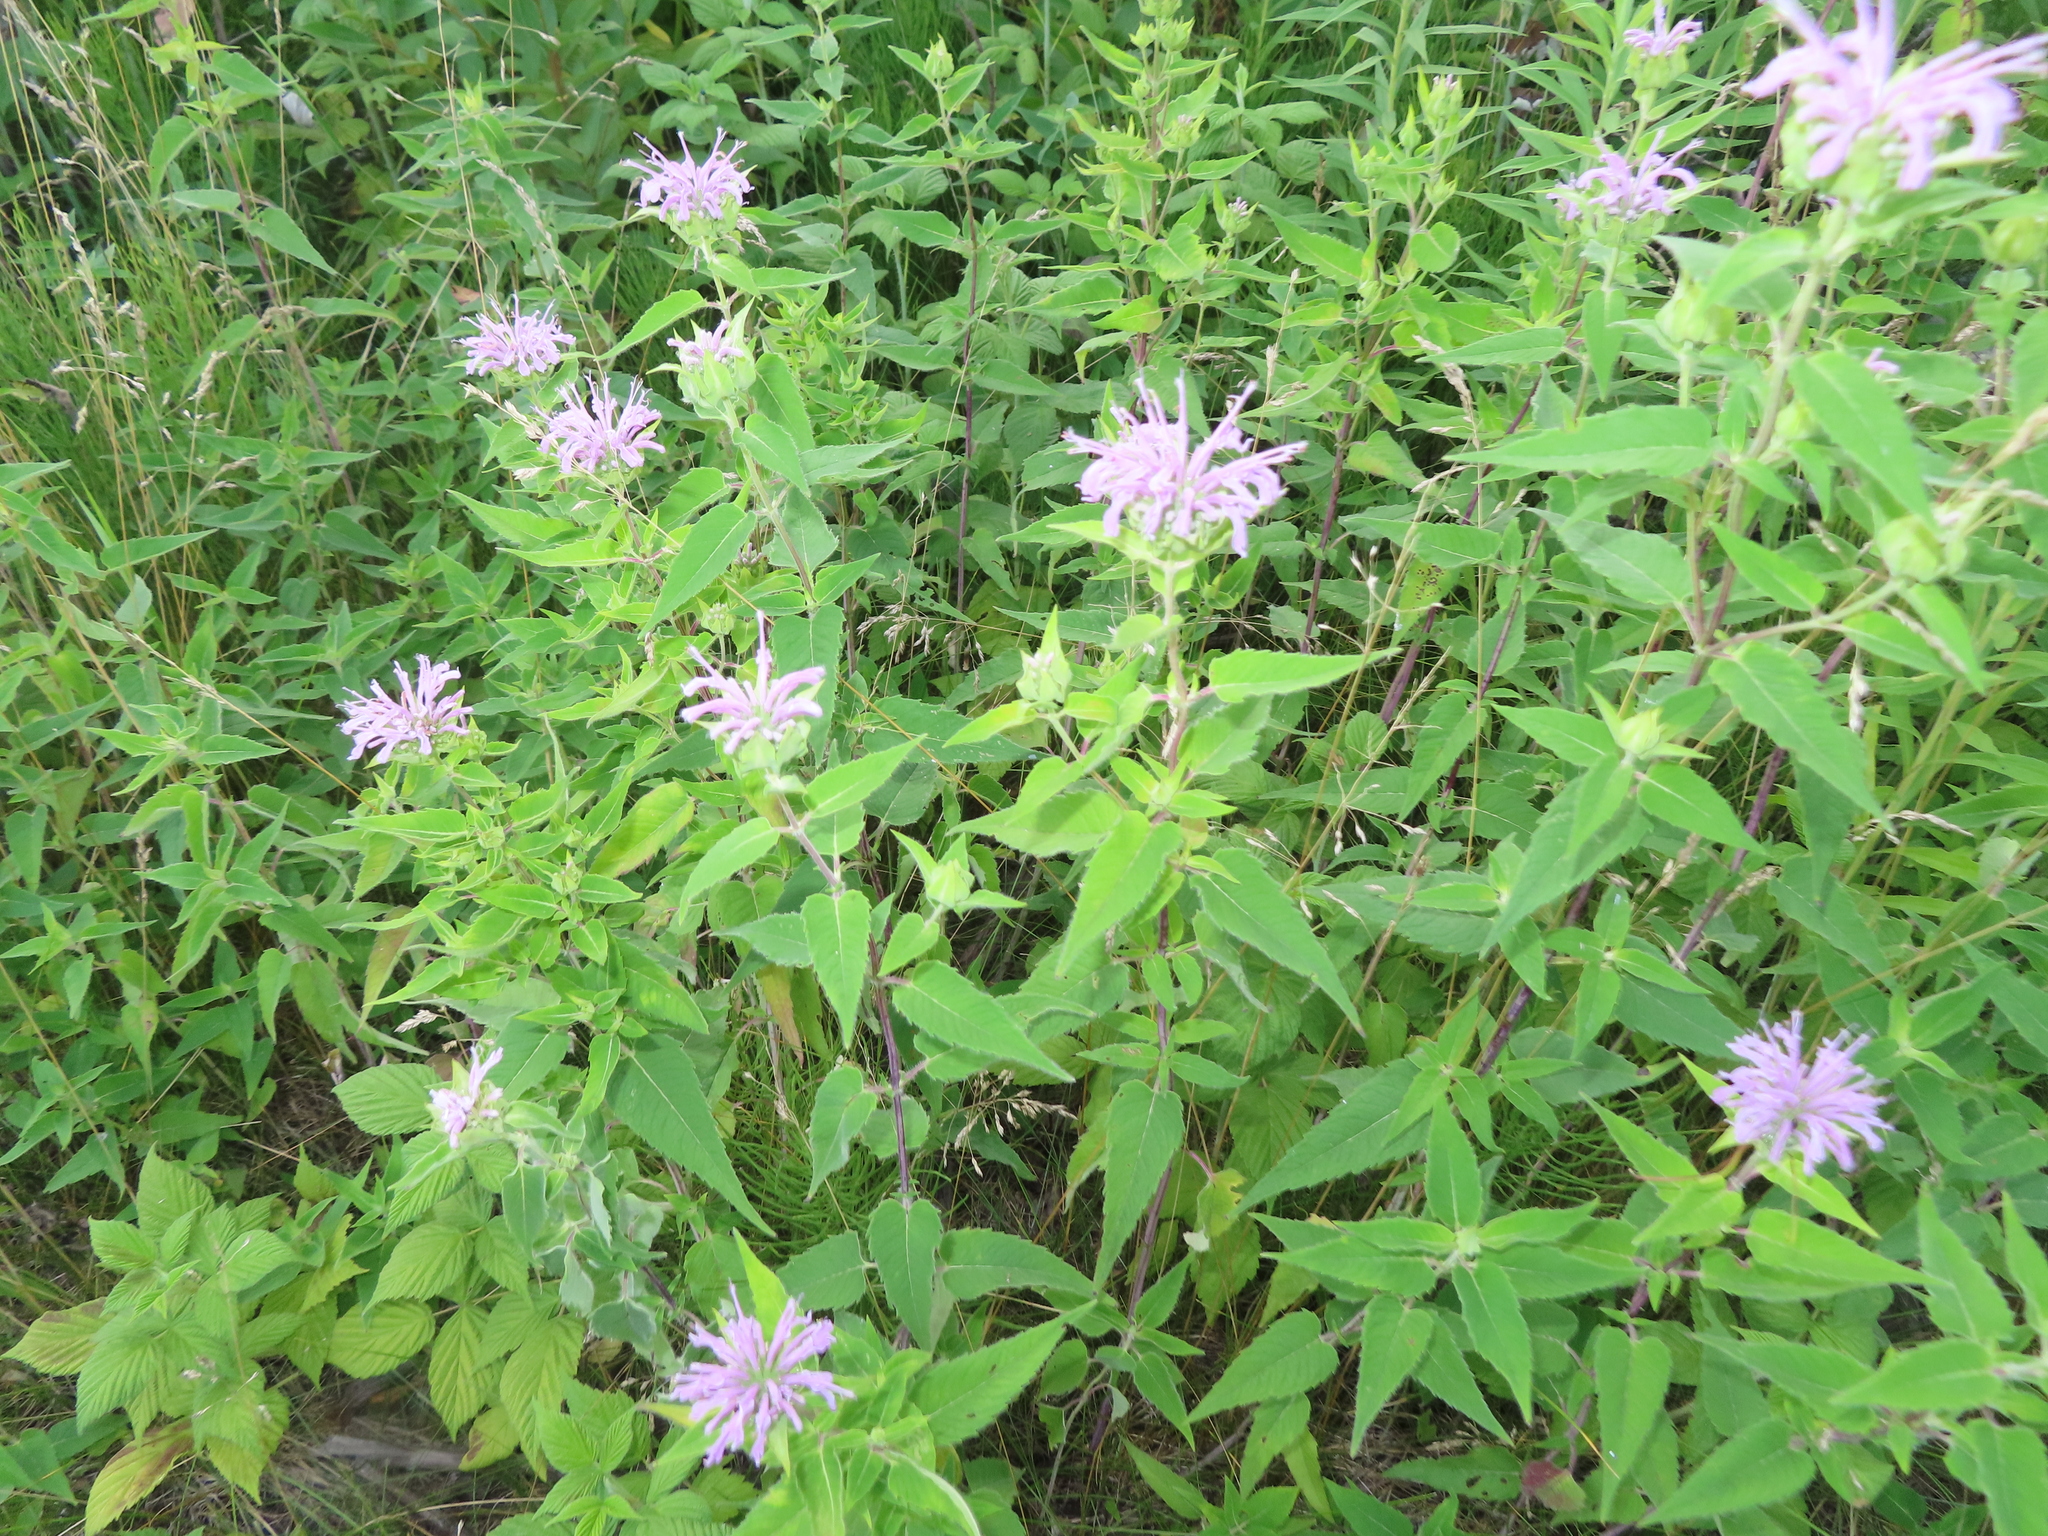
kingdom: Plantae
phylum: Tracheophyta
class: Magnoliopsida
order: Lamiales
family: Lamiaceae
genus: Monarda
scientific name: Monarda fistulosa
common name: Purple beebalm
